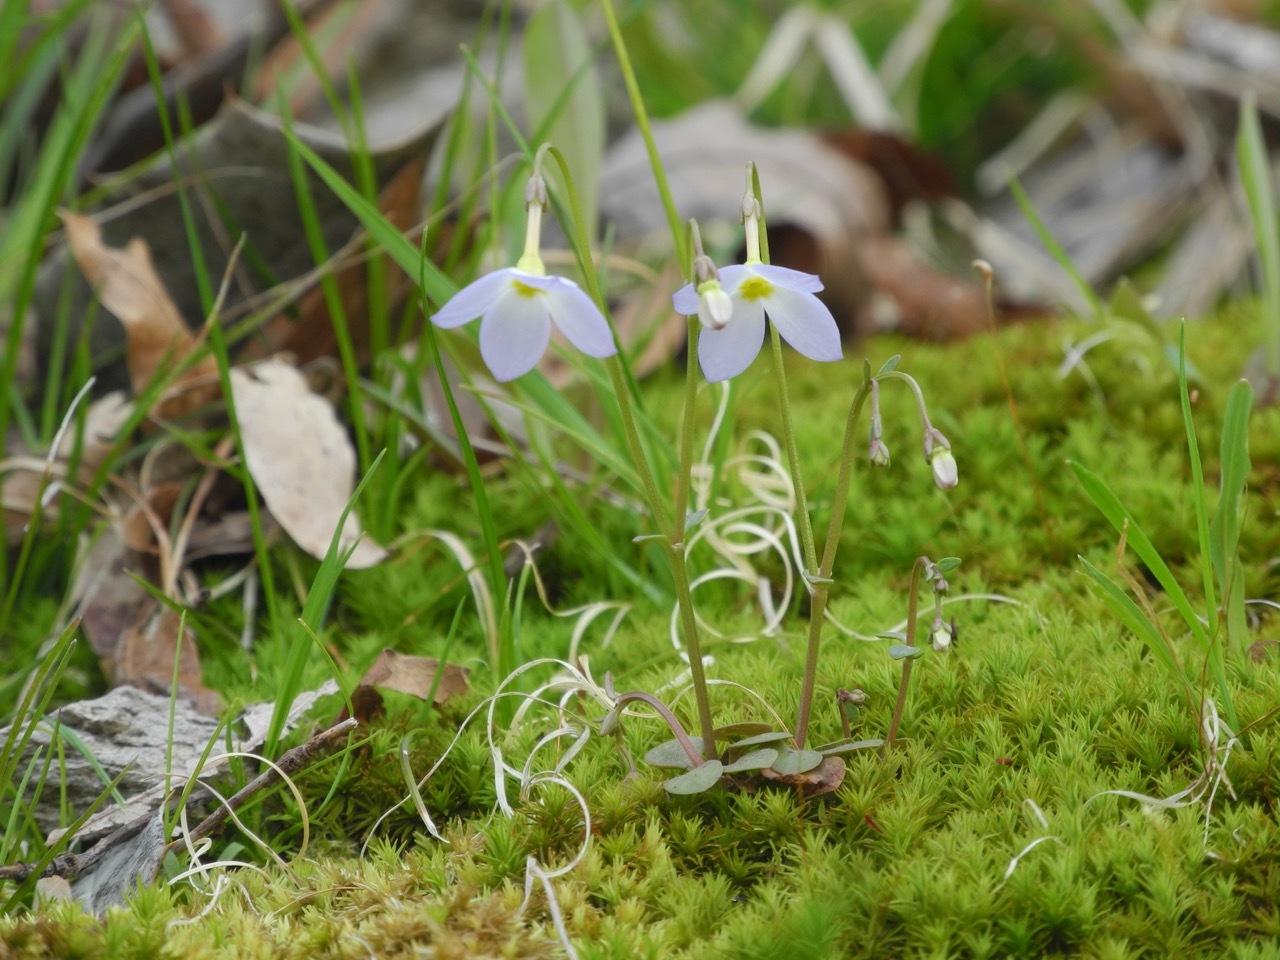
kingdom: Plantae
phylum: Tracheophyta
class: Magnoliopsida
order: Gentianales
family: Rubiaceae
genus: Houstonia
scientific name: Houstonia caerulea
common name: Bluets
